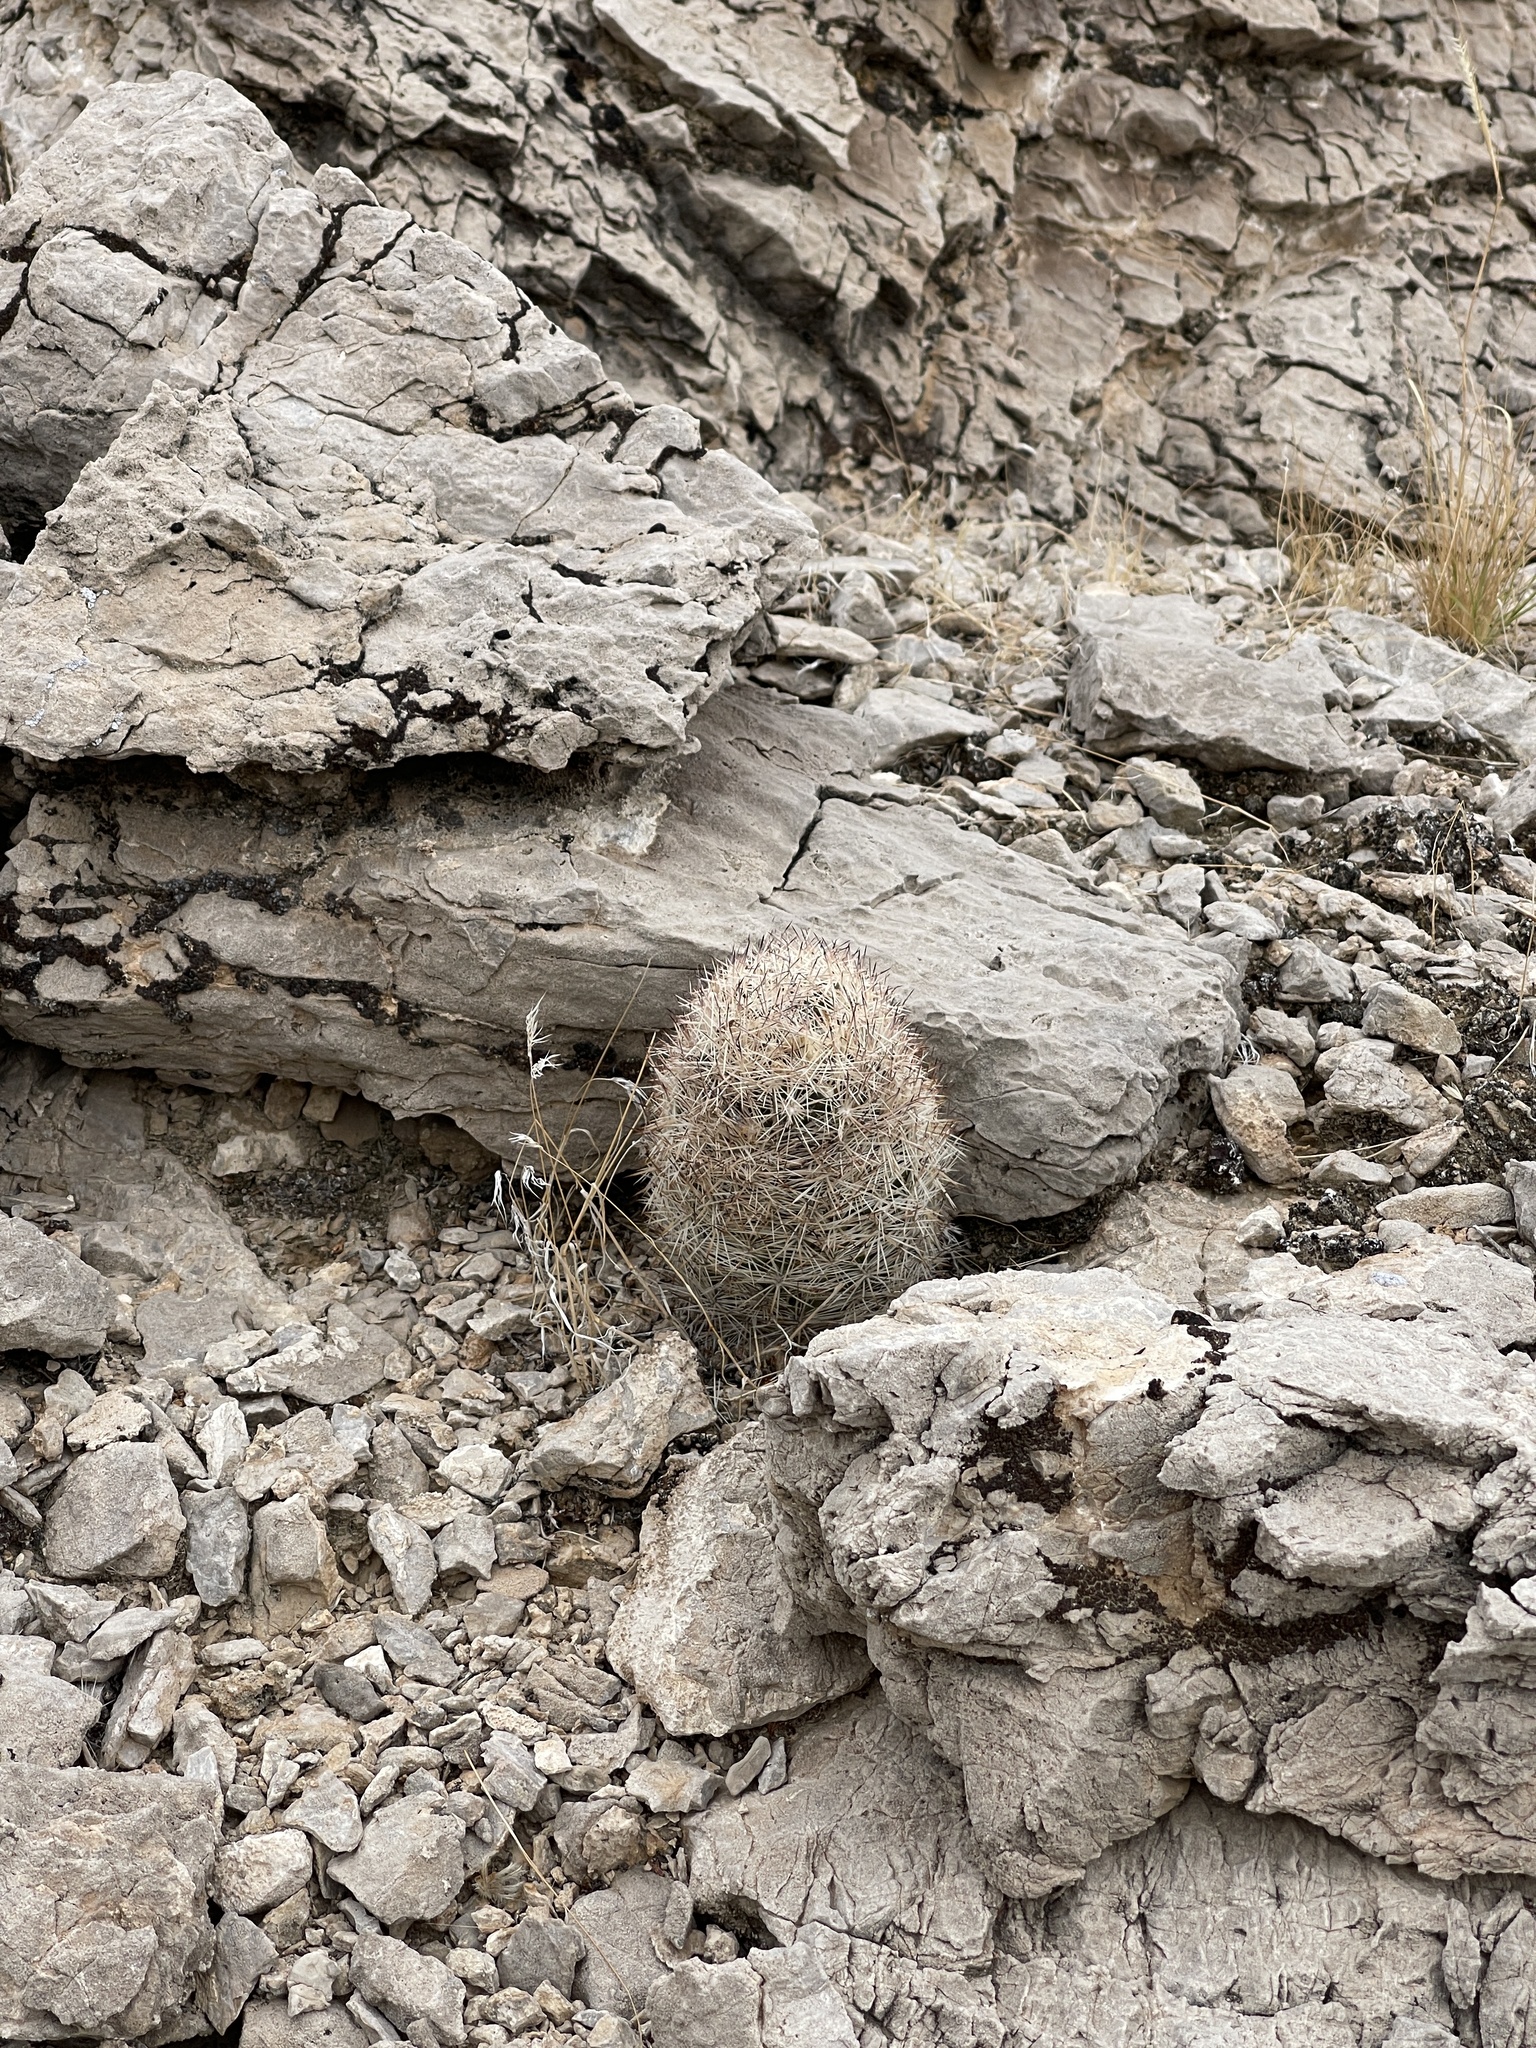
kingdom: Plantae
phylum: Tracheophyta
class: Magnoliopsida
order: Caryophyllales
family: Cactaceae
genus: Pelecyphora
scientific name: Pelecyphora dasyacantha
